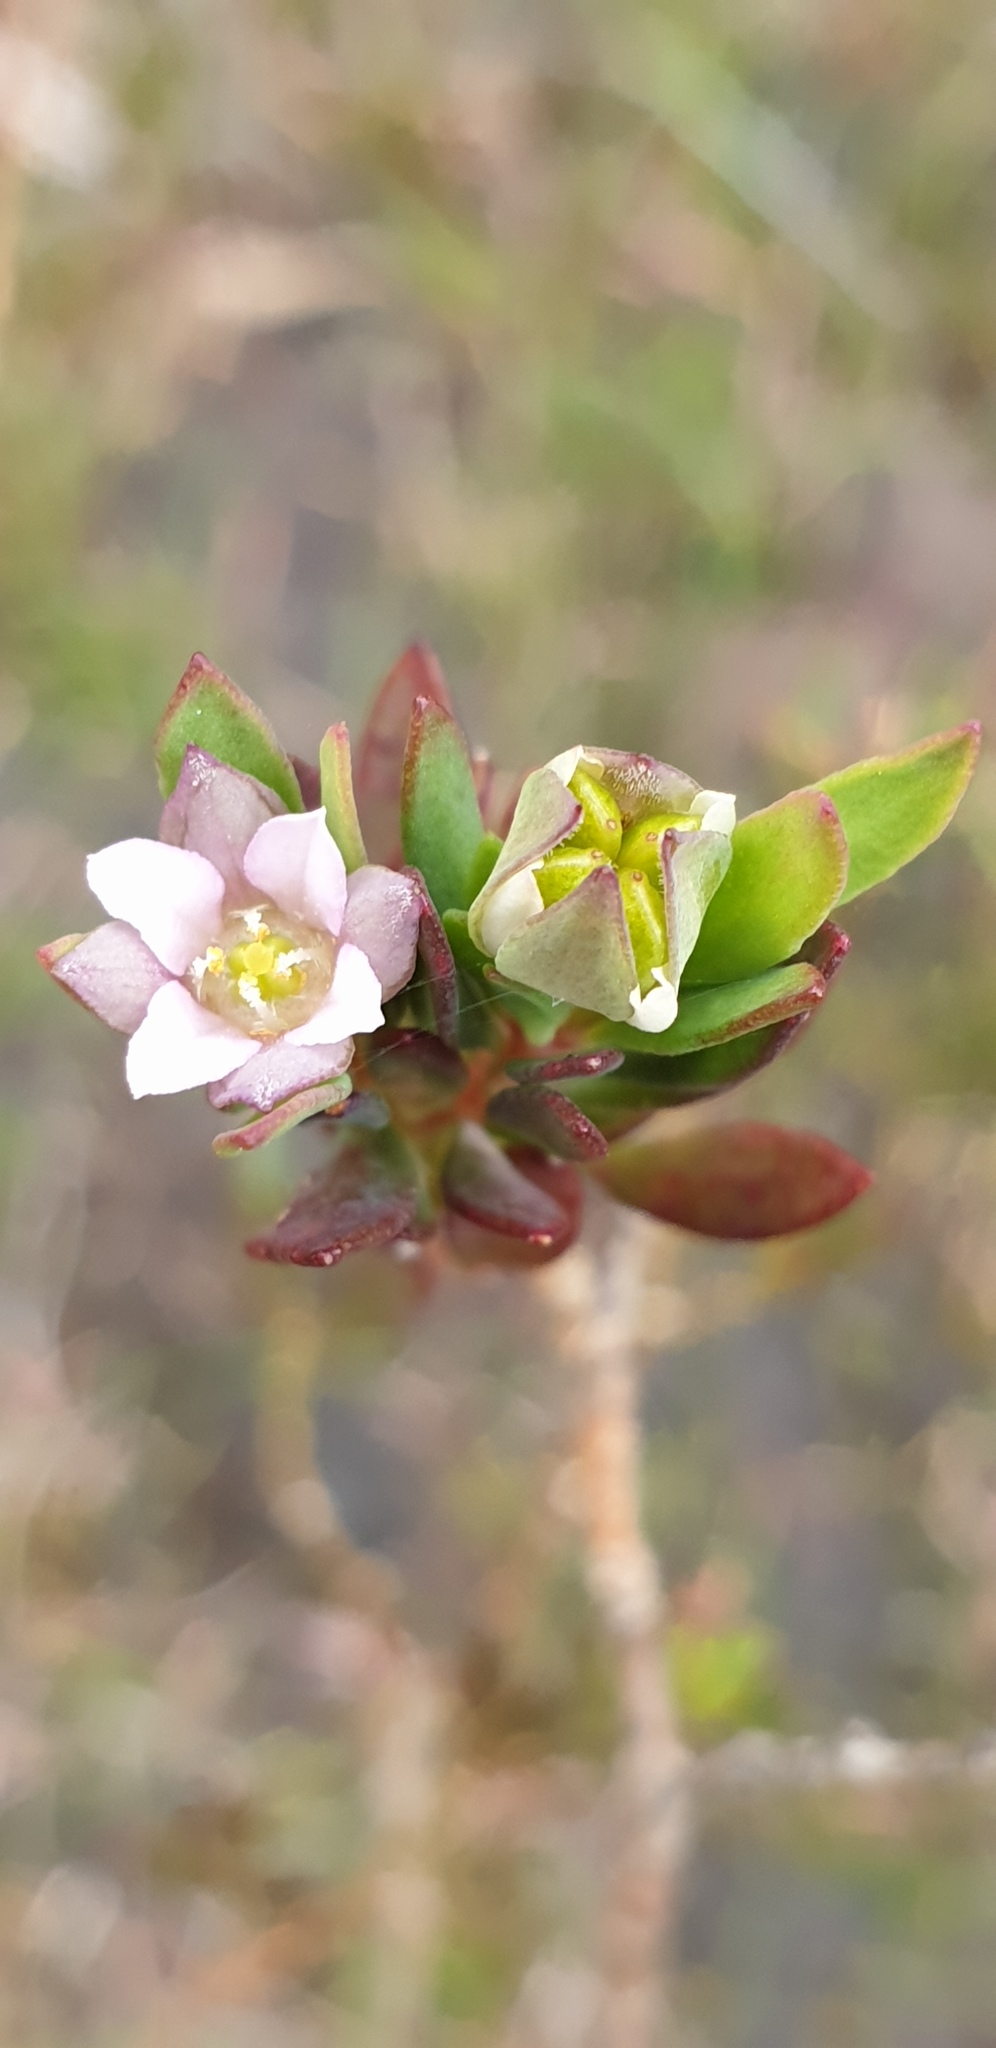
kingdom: Plantae
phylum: Tracheophyta
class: Magnoliopsida
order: Sapindales
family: Rutaceae
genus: Boronia
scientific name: Boronia parviflora
